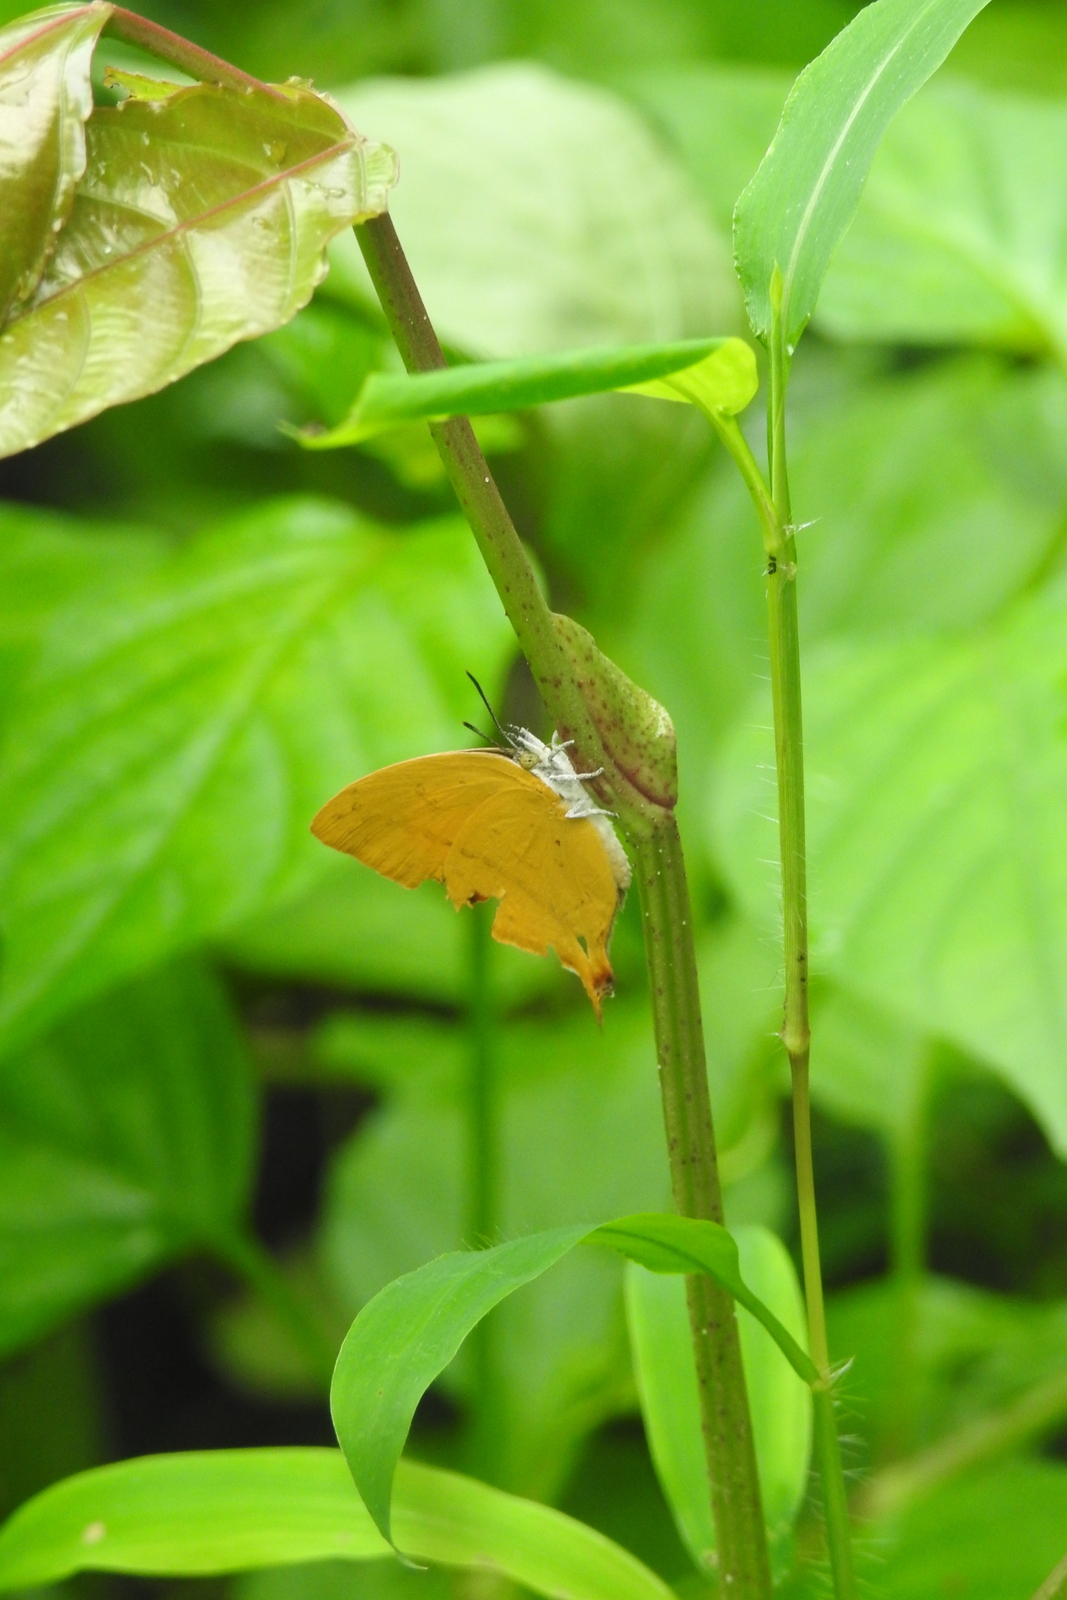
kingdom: Animalia
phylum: Arthropoda
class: Insecta
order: Lepidoptera
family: Lycaenidae
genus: Loxura
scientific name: Loxura atymnus
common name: Common yamfly
